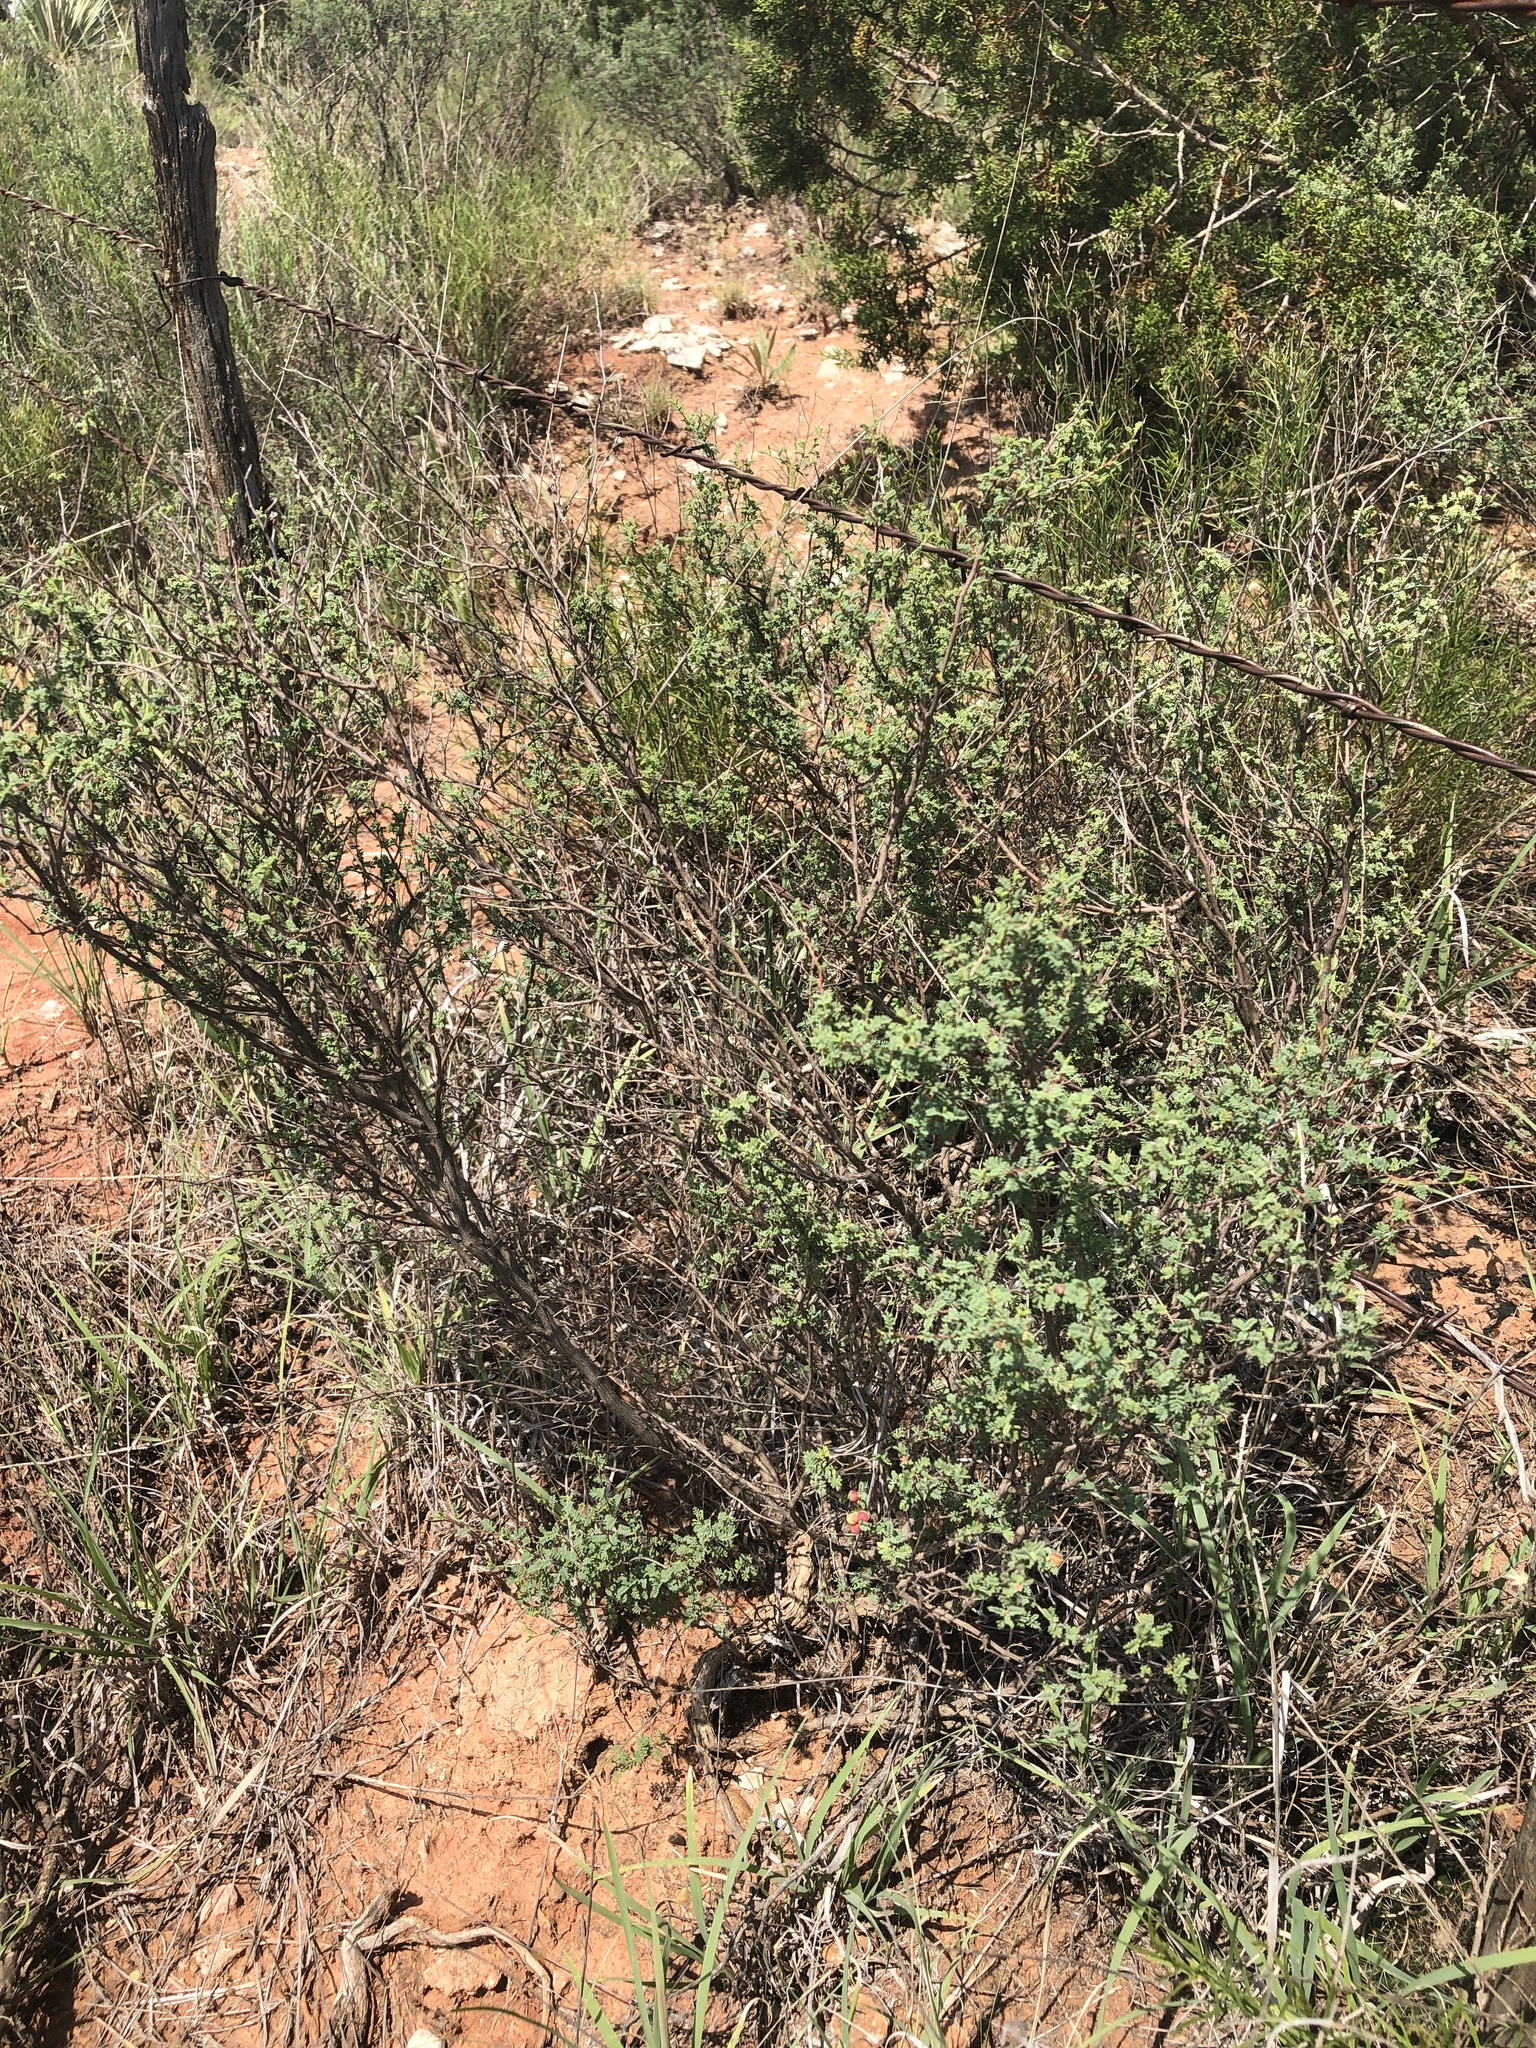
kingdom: Plantae
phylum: Tracheophyta
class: Magnoliopsida
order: Fabales
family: Fabaceae
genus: Dalea
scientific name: Dalea formosa
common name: Feather-plume dalea
